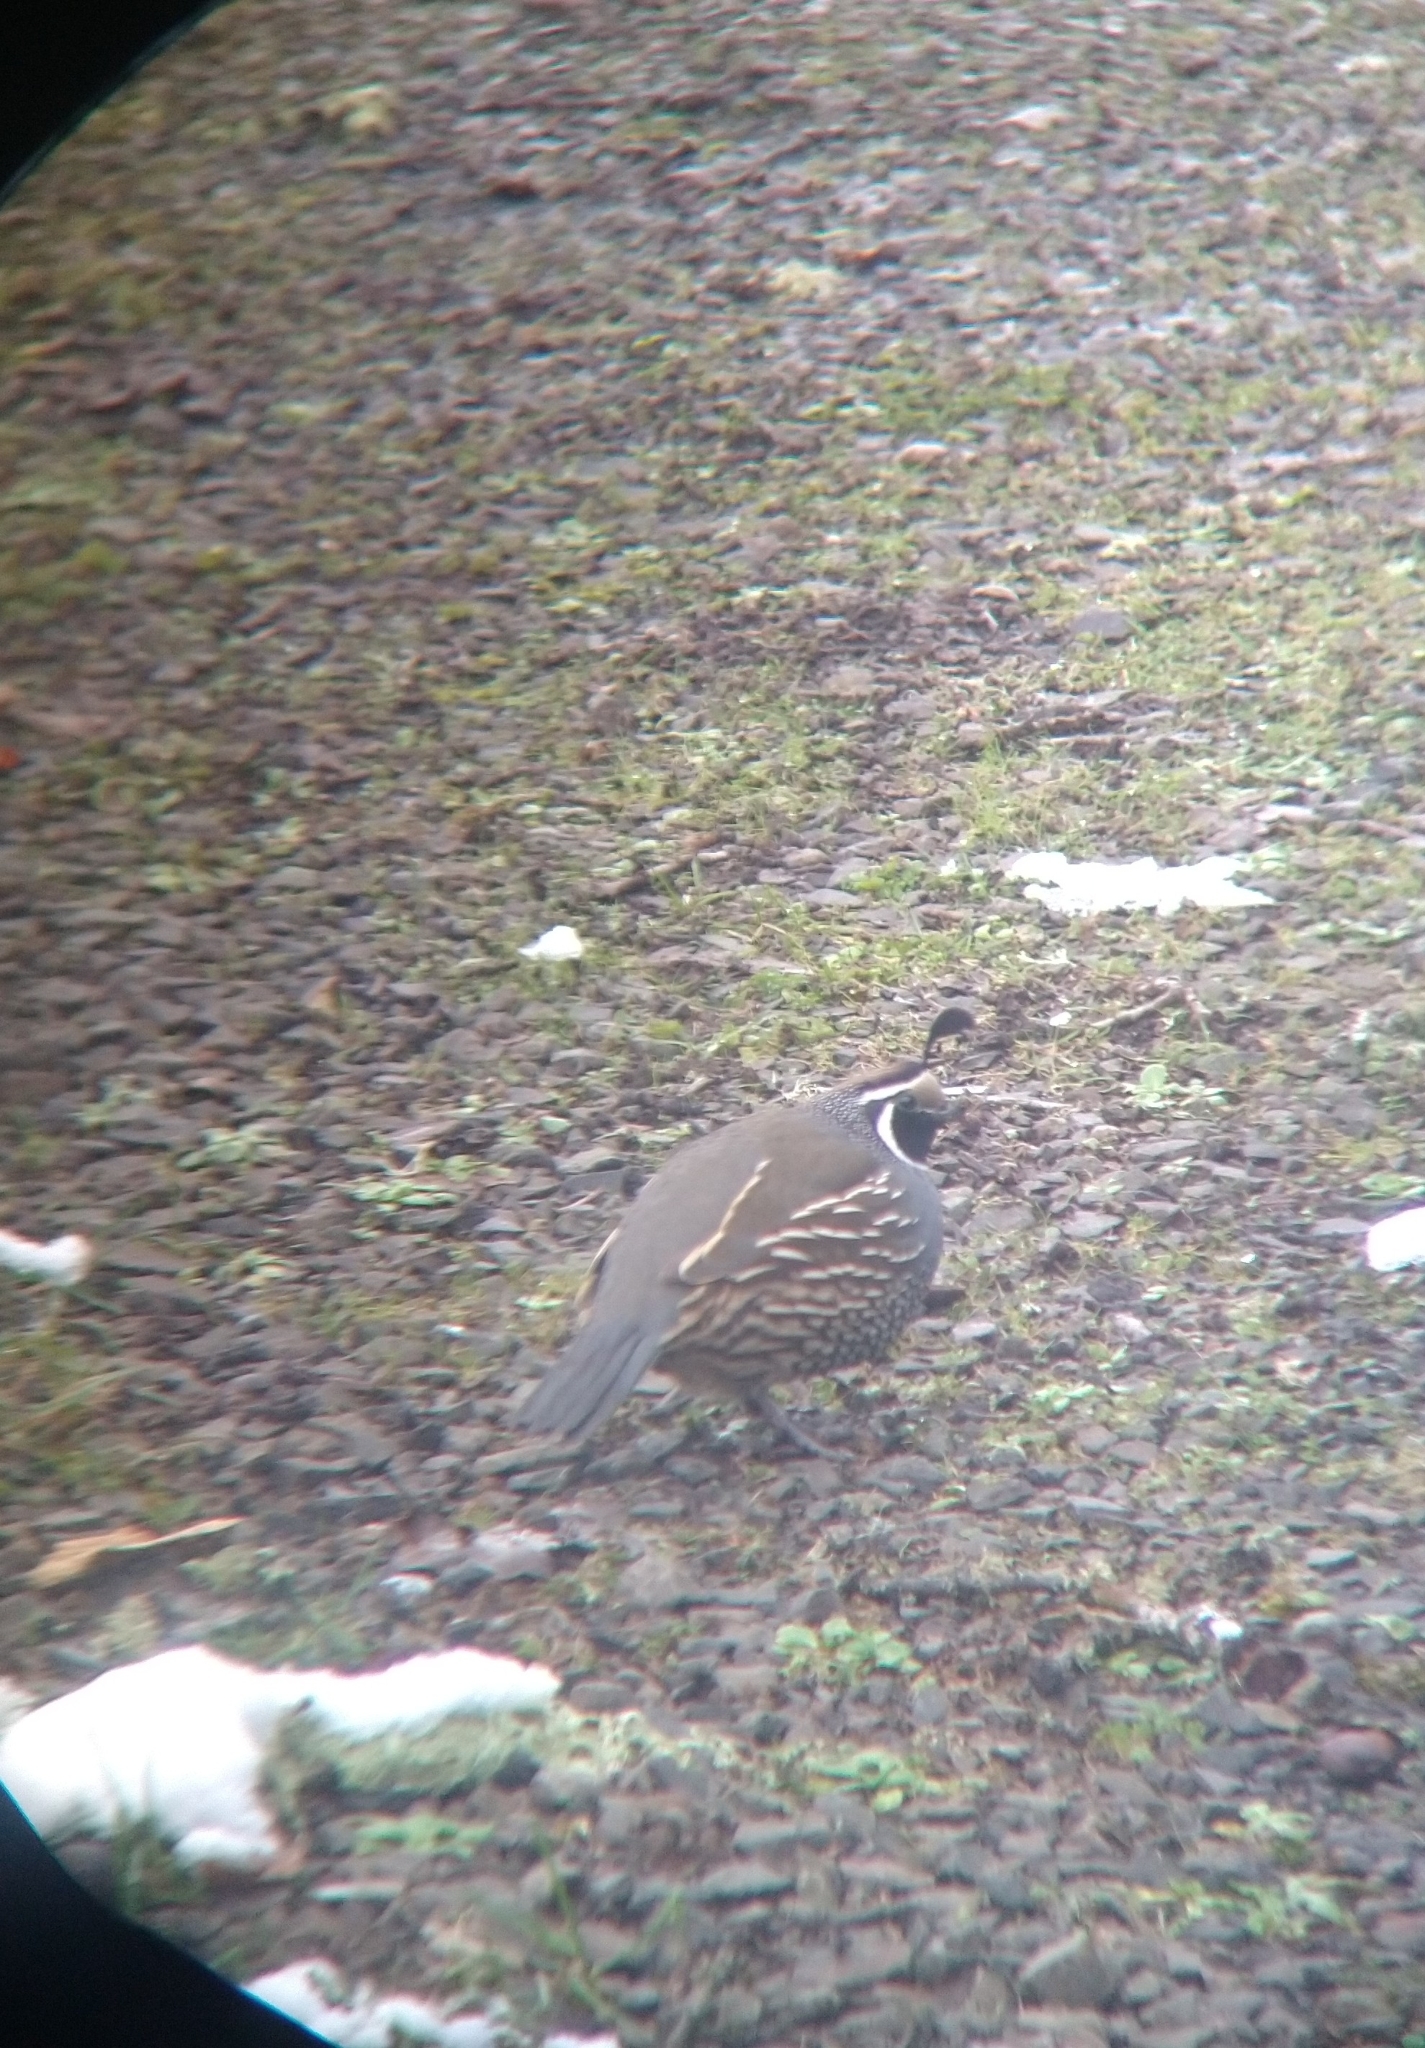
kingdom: Animalia
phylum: Chordata
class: Aves
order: Galliformes
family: Odontophoridae
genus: Callipepla
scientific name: Callipepla californica
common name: California quail
